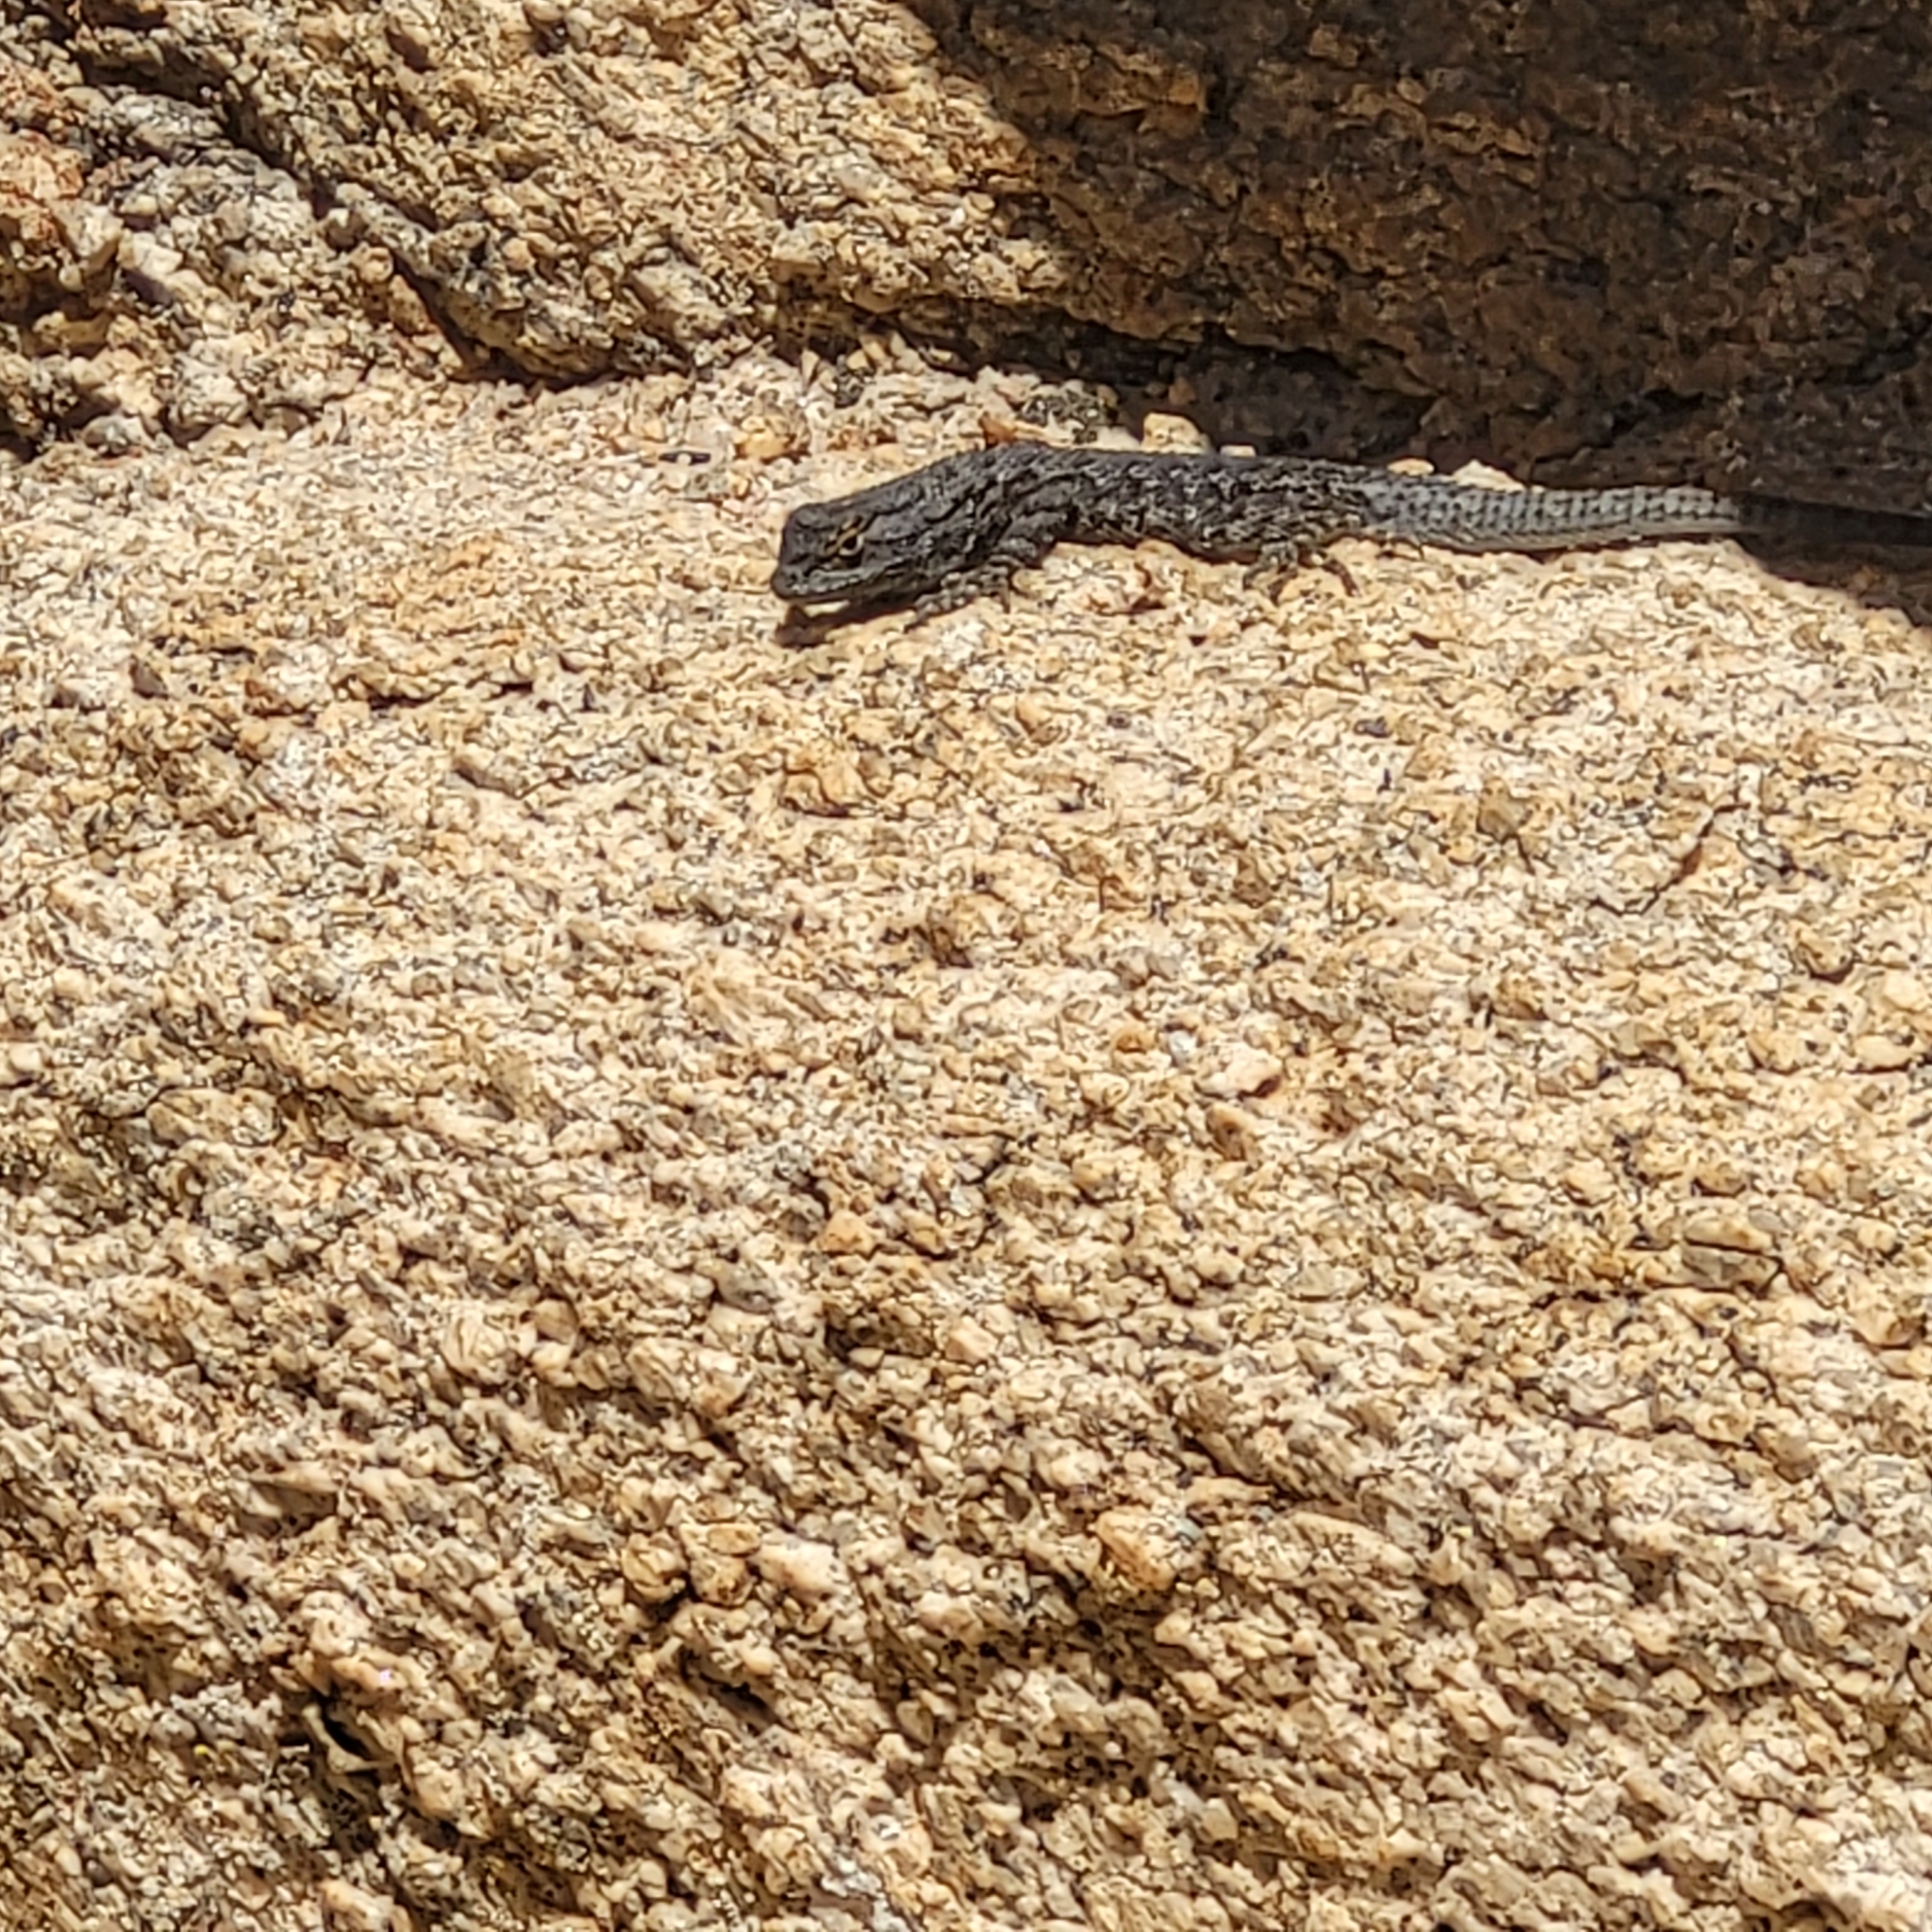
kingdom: Animalia
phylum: Chordata
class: Squamata
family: Phrynosomatidae
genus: Sceloporus
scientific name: Sceloporus occidentalis
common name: Western fence lizard
